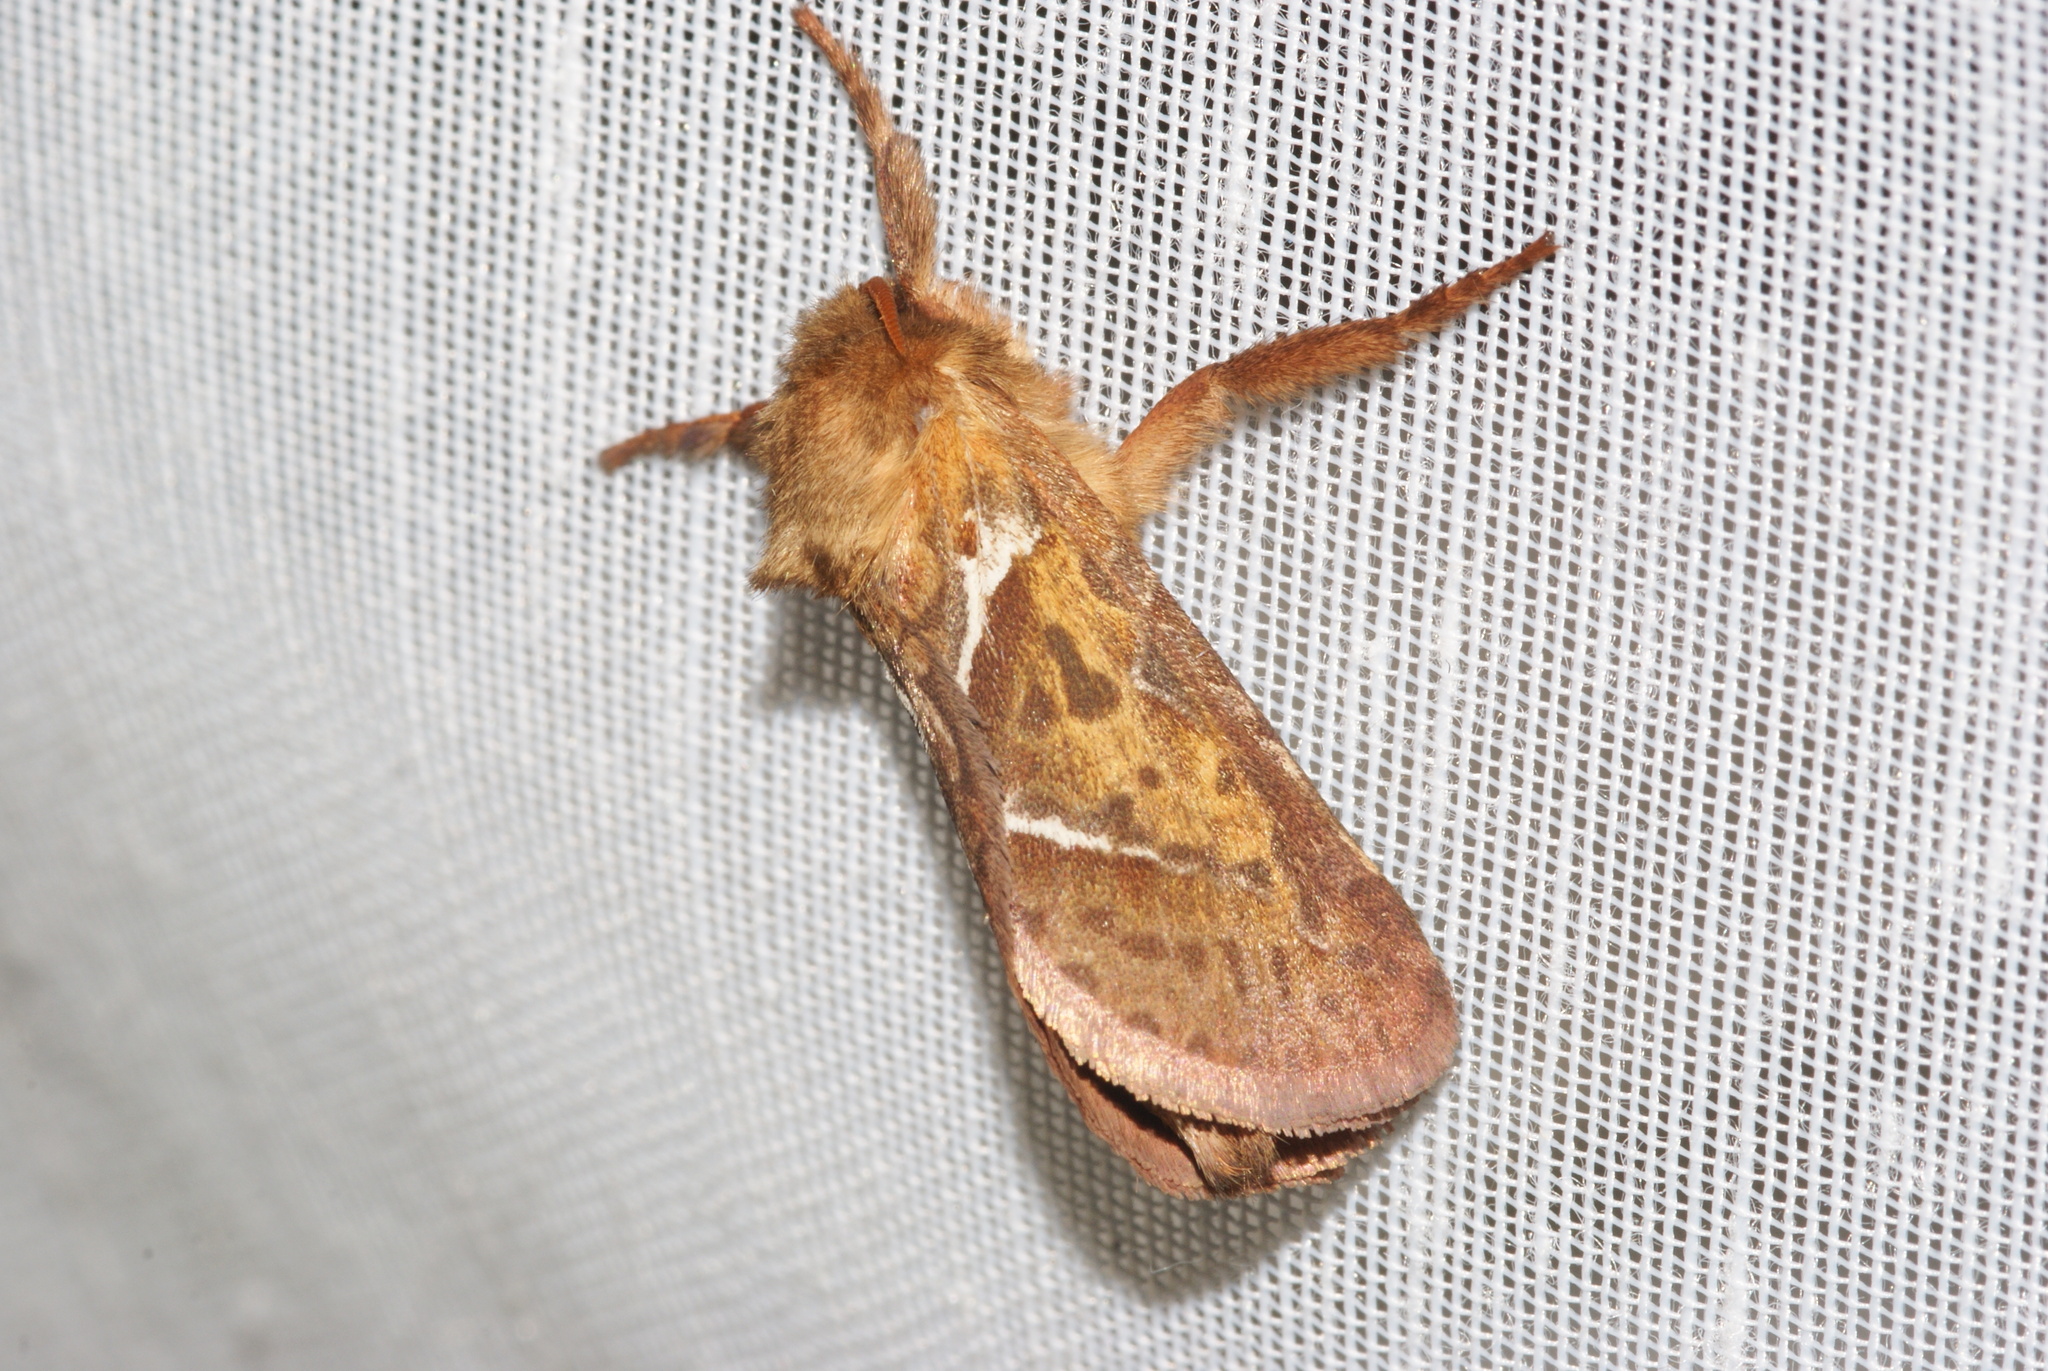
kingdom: Animalia
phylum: Arthropoda
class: Insecta
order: Lepidoptera
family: Hepialidae
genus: Triodia
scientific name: Triodia sylvina
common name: Orange swift
